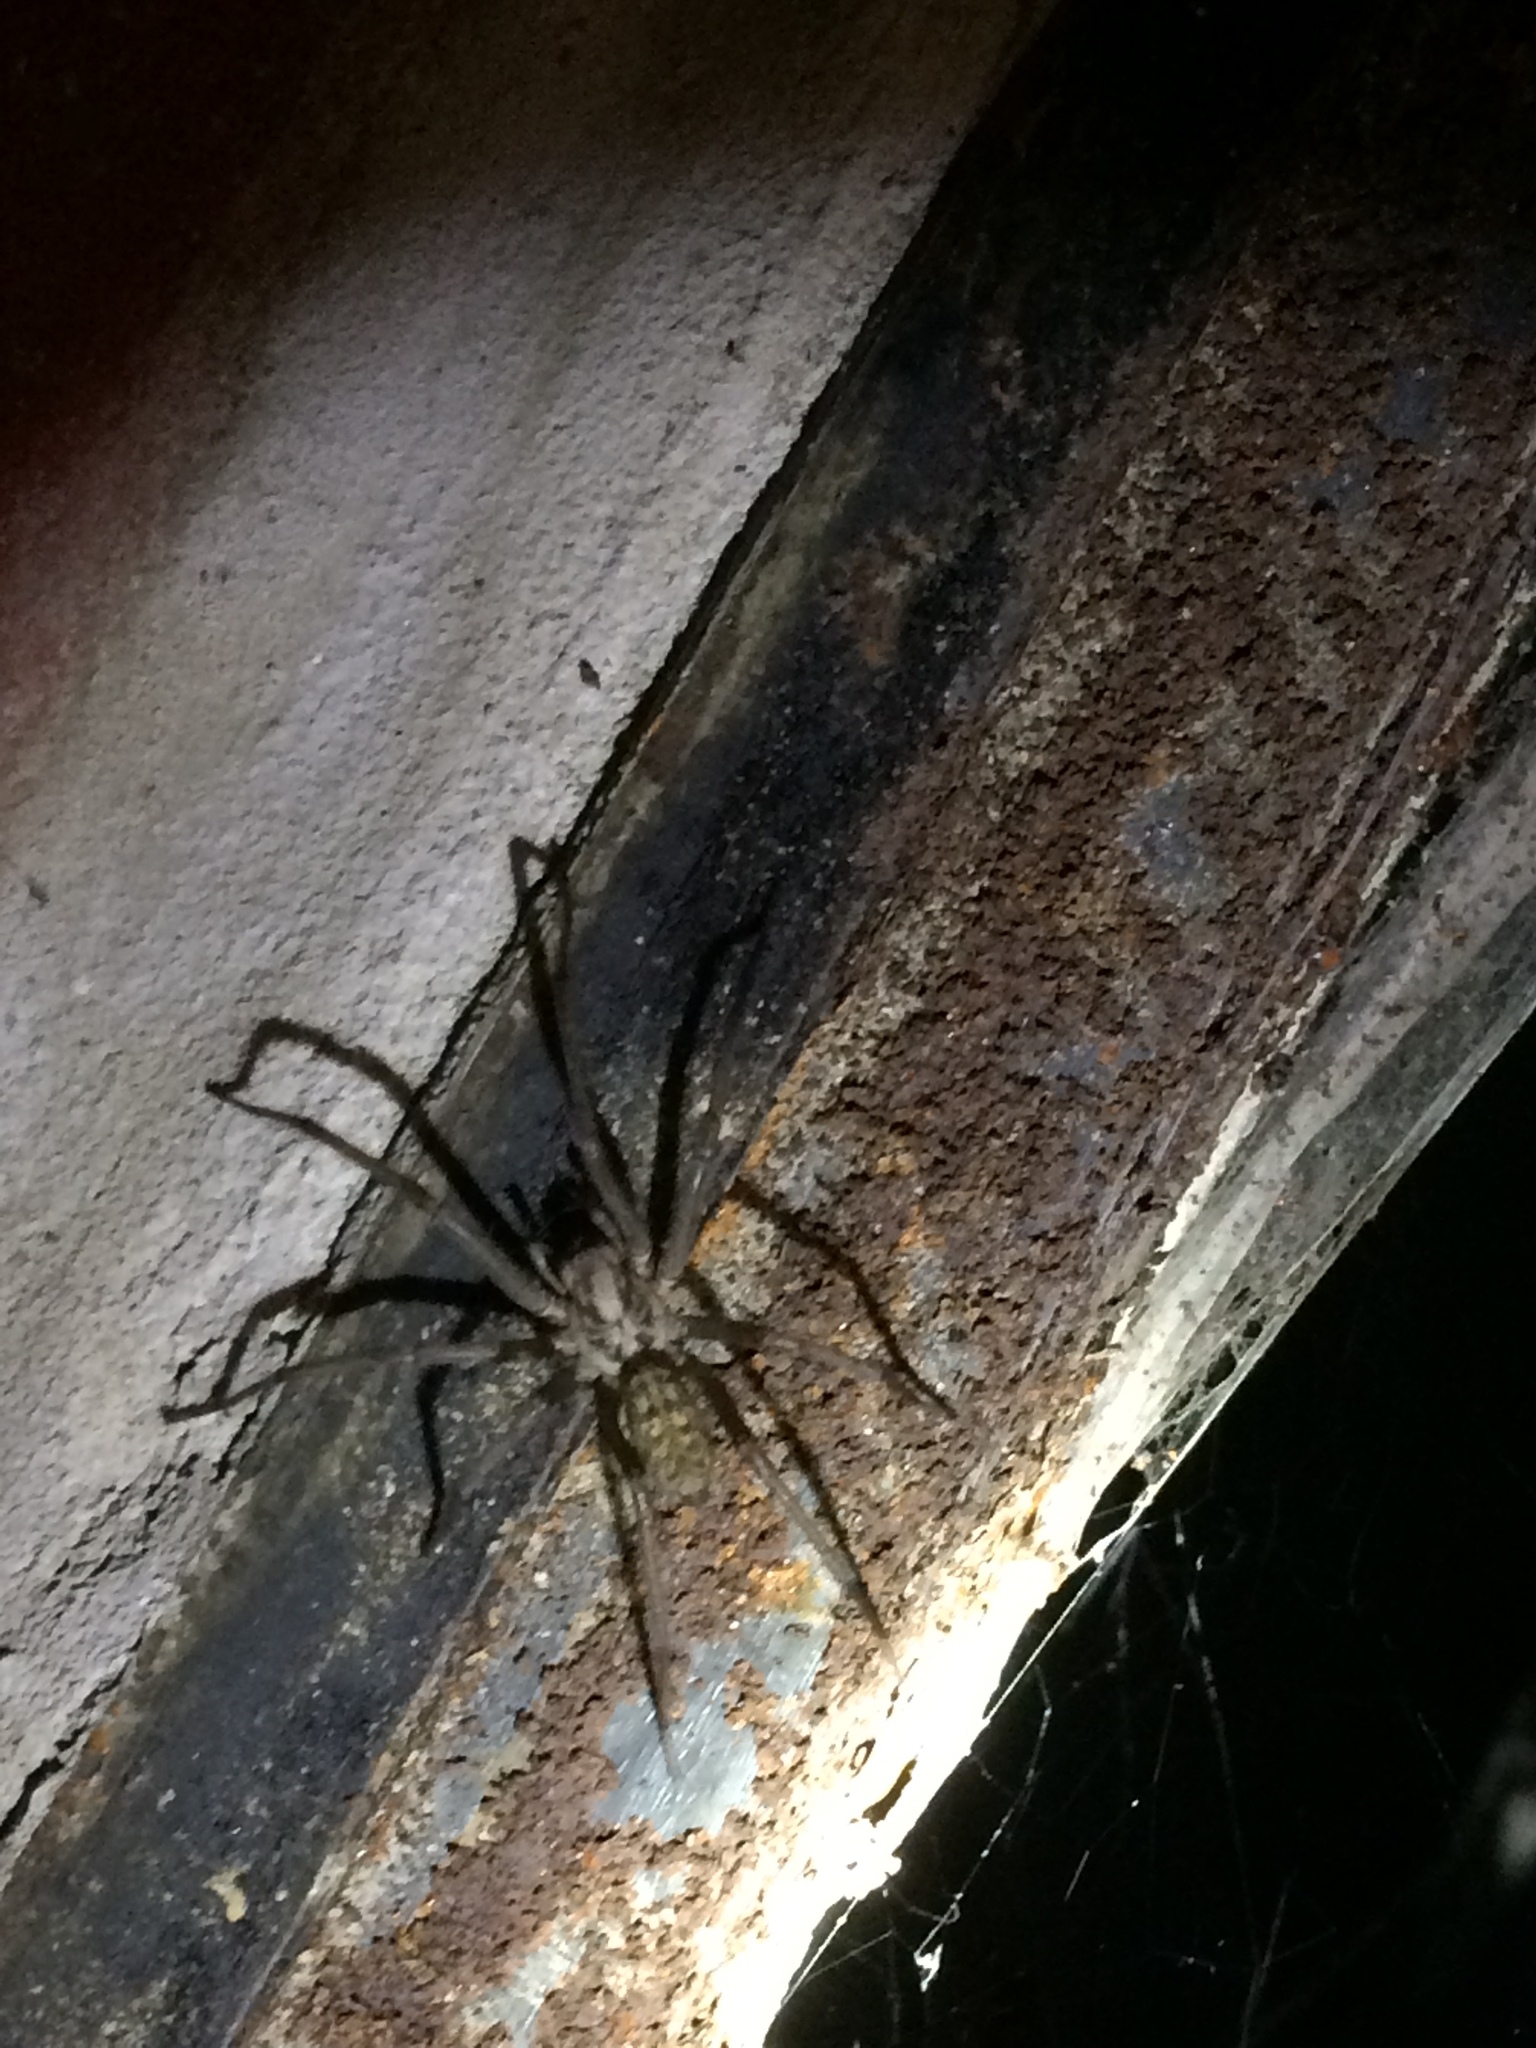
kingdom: Animalia
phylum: Arthropoda
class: Arachnida
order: Araneae
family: Agelenidae
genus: Eratigena
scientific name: Eratigena atrica
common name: Giant house spider
